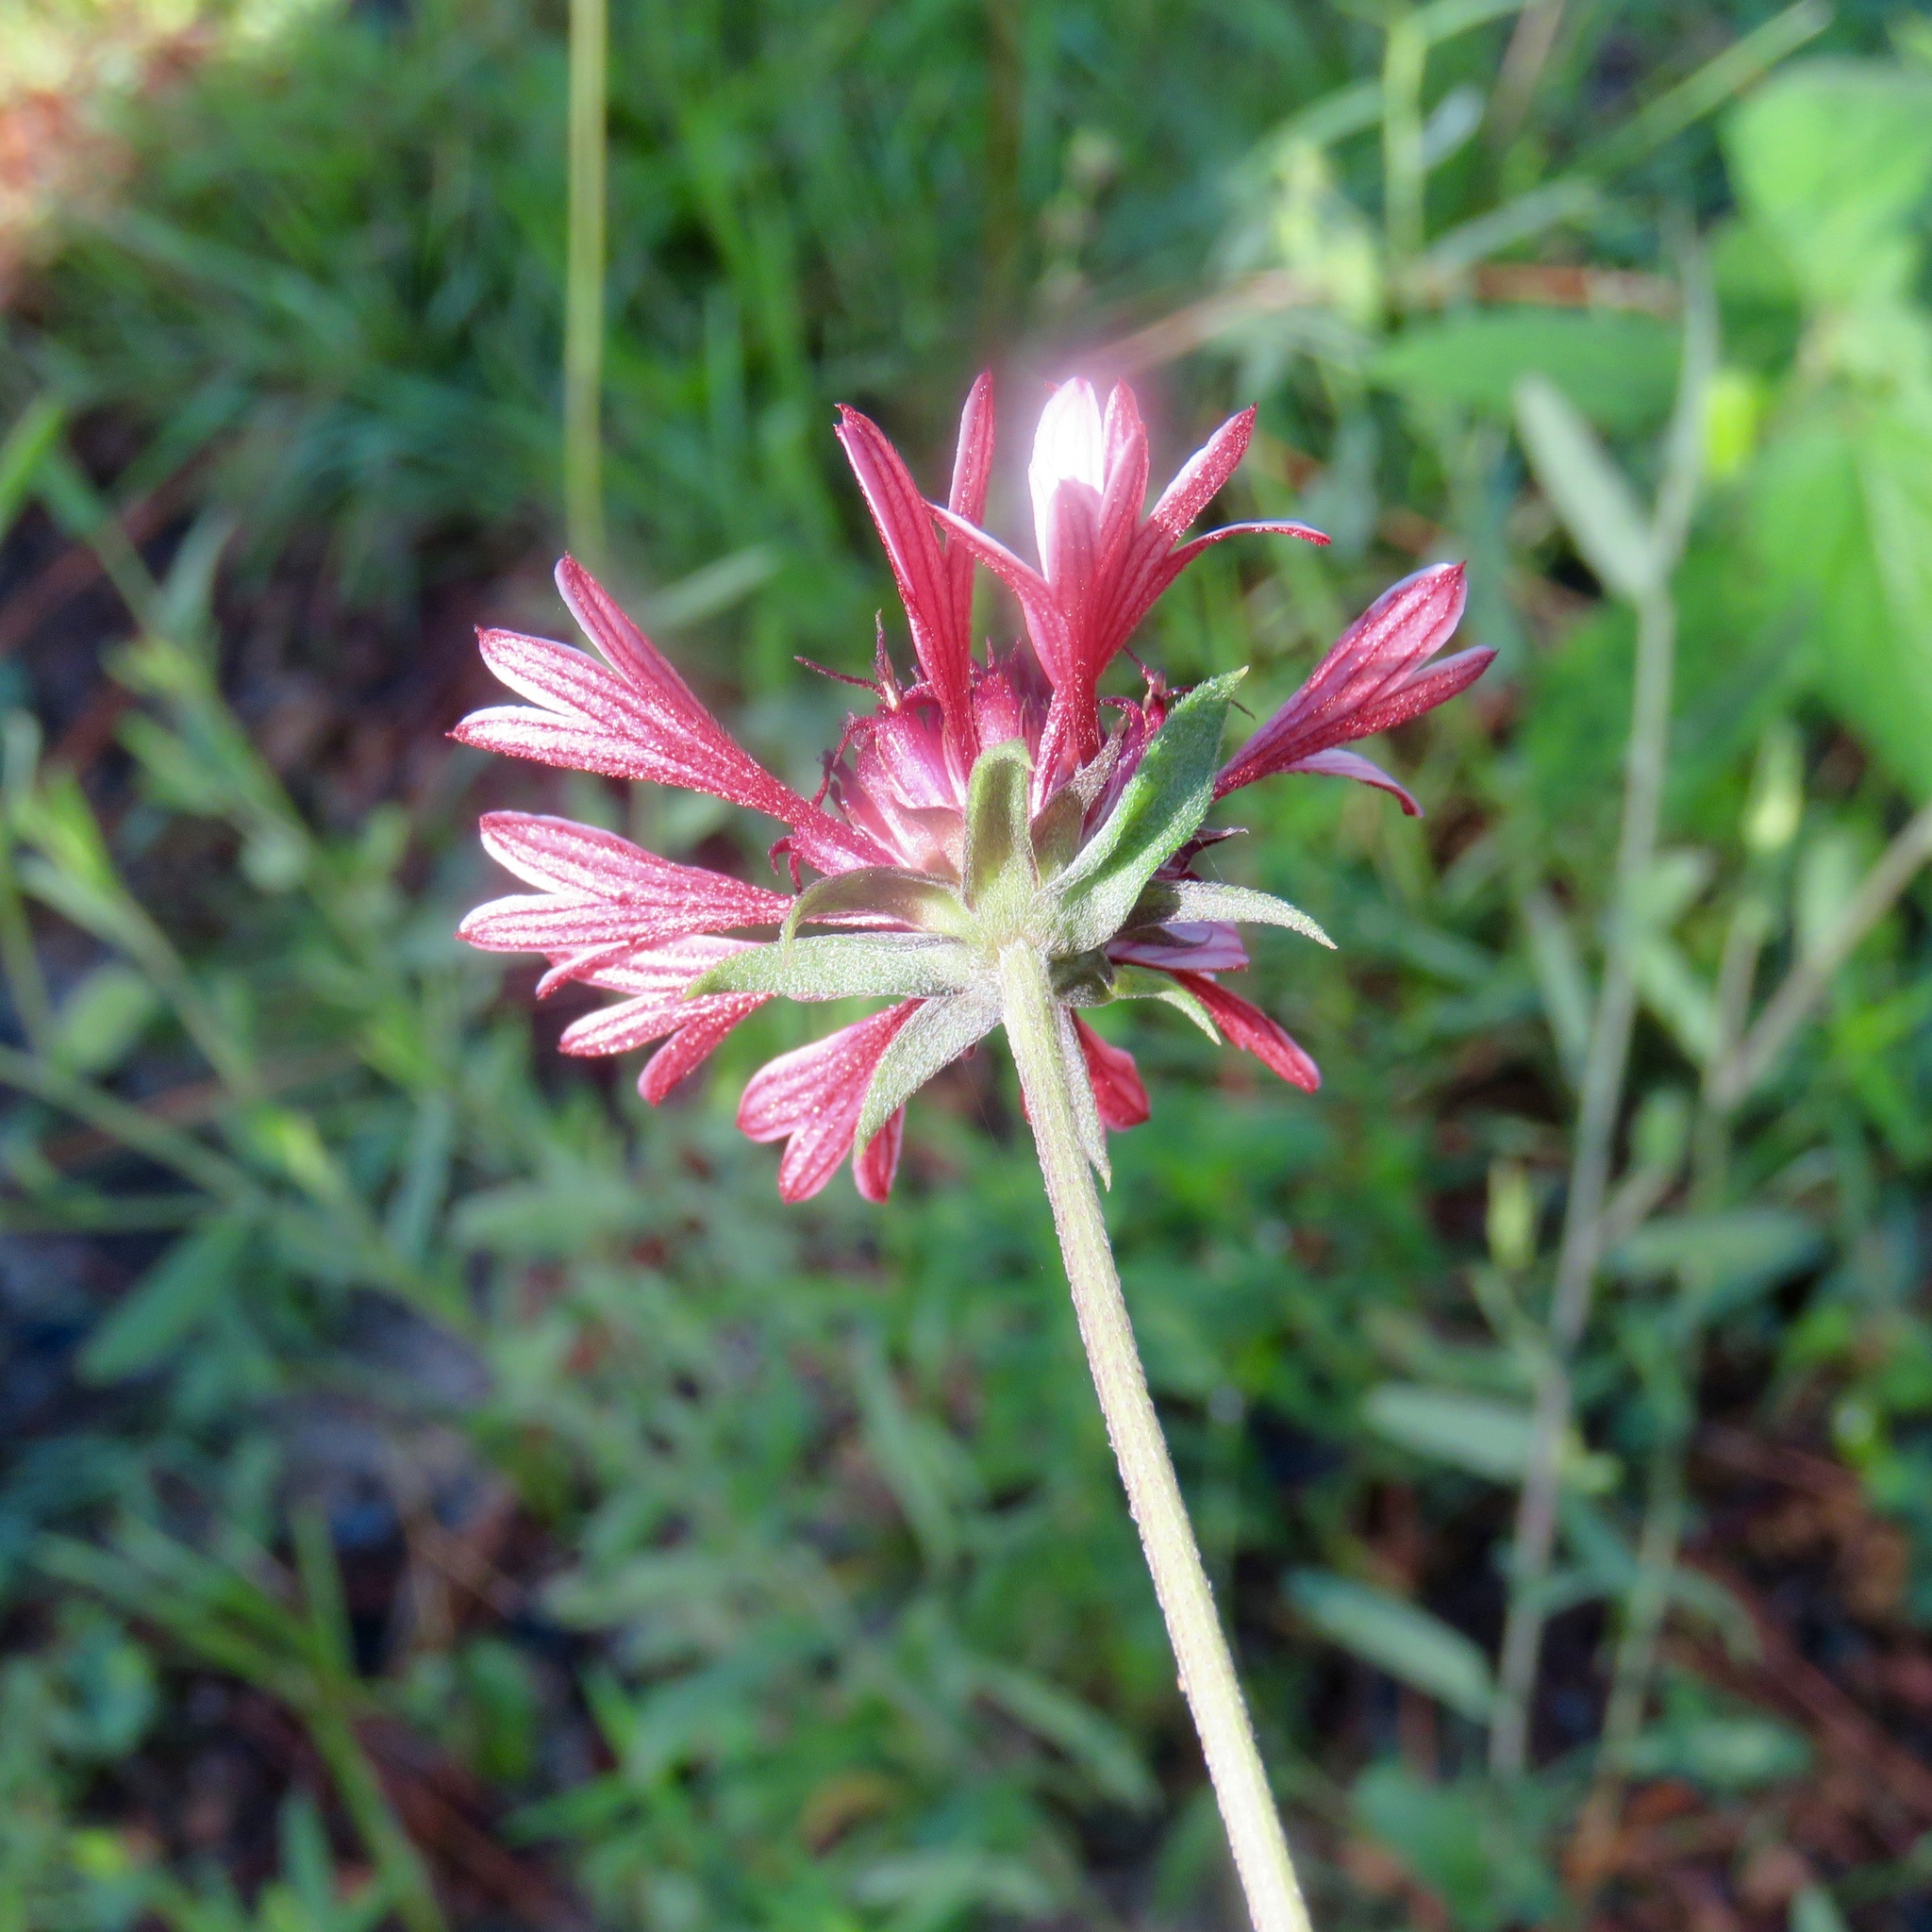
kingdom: Plantae
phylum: Tracheophyta
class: Magnoliopsida
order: Asterales
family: Asteraceae
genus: Gaillardia
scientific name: Gaillardia aestivalis
